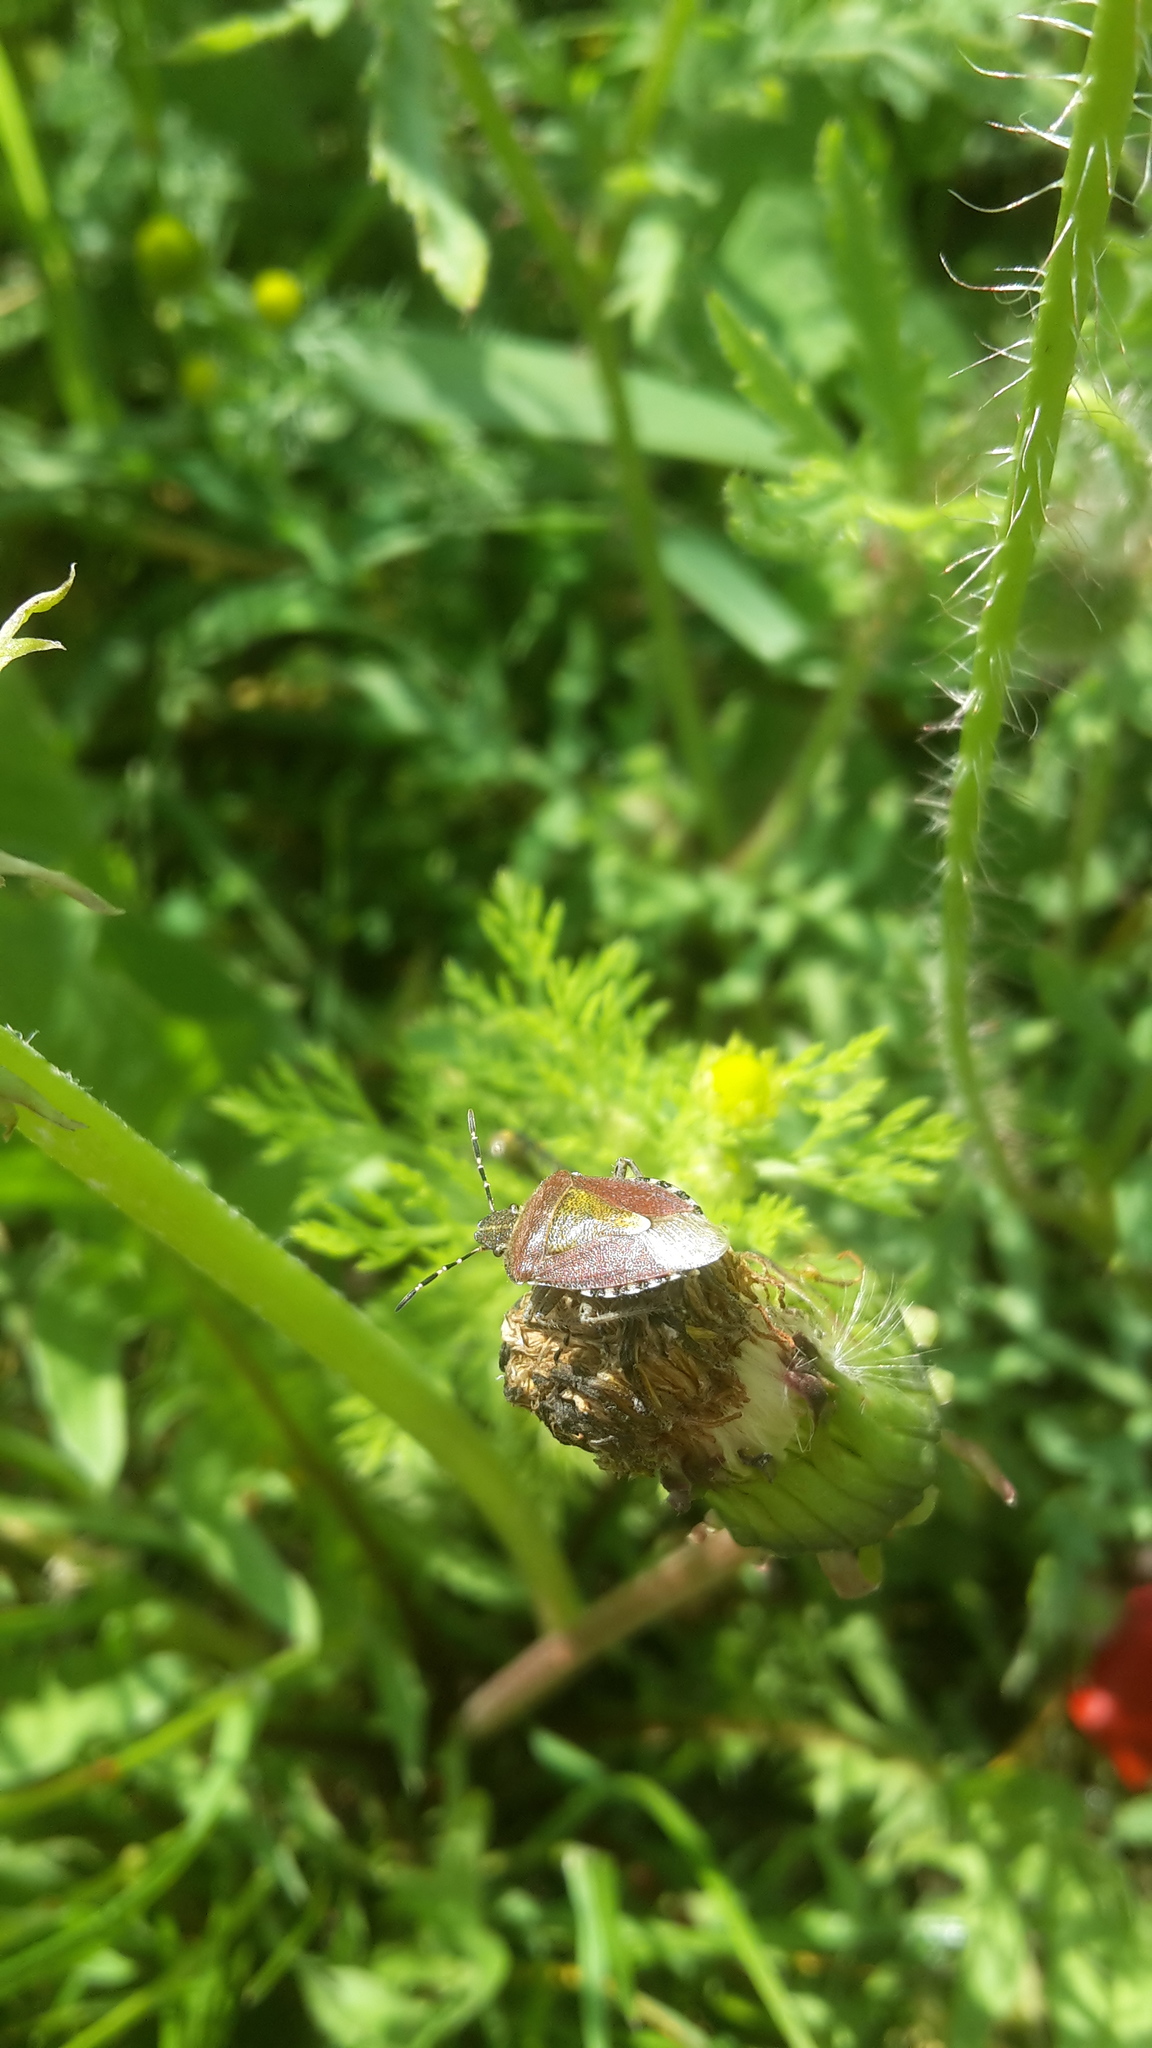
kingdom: Animalia
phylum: Arthropoda
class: Insecta
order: Hemiptera
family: Pentatomidae
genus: Dolycoris
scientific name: Dolycoris baccarum
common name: Sloe bug
